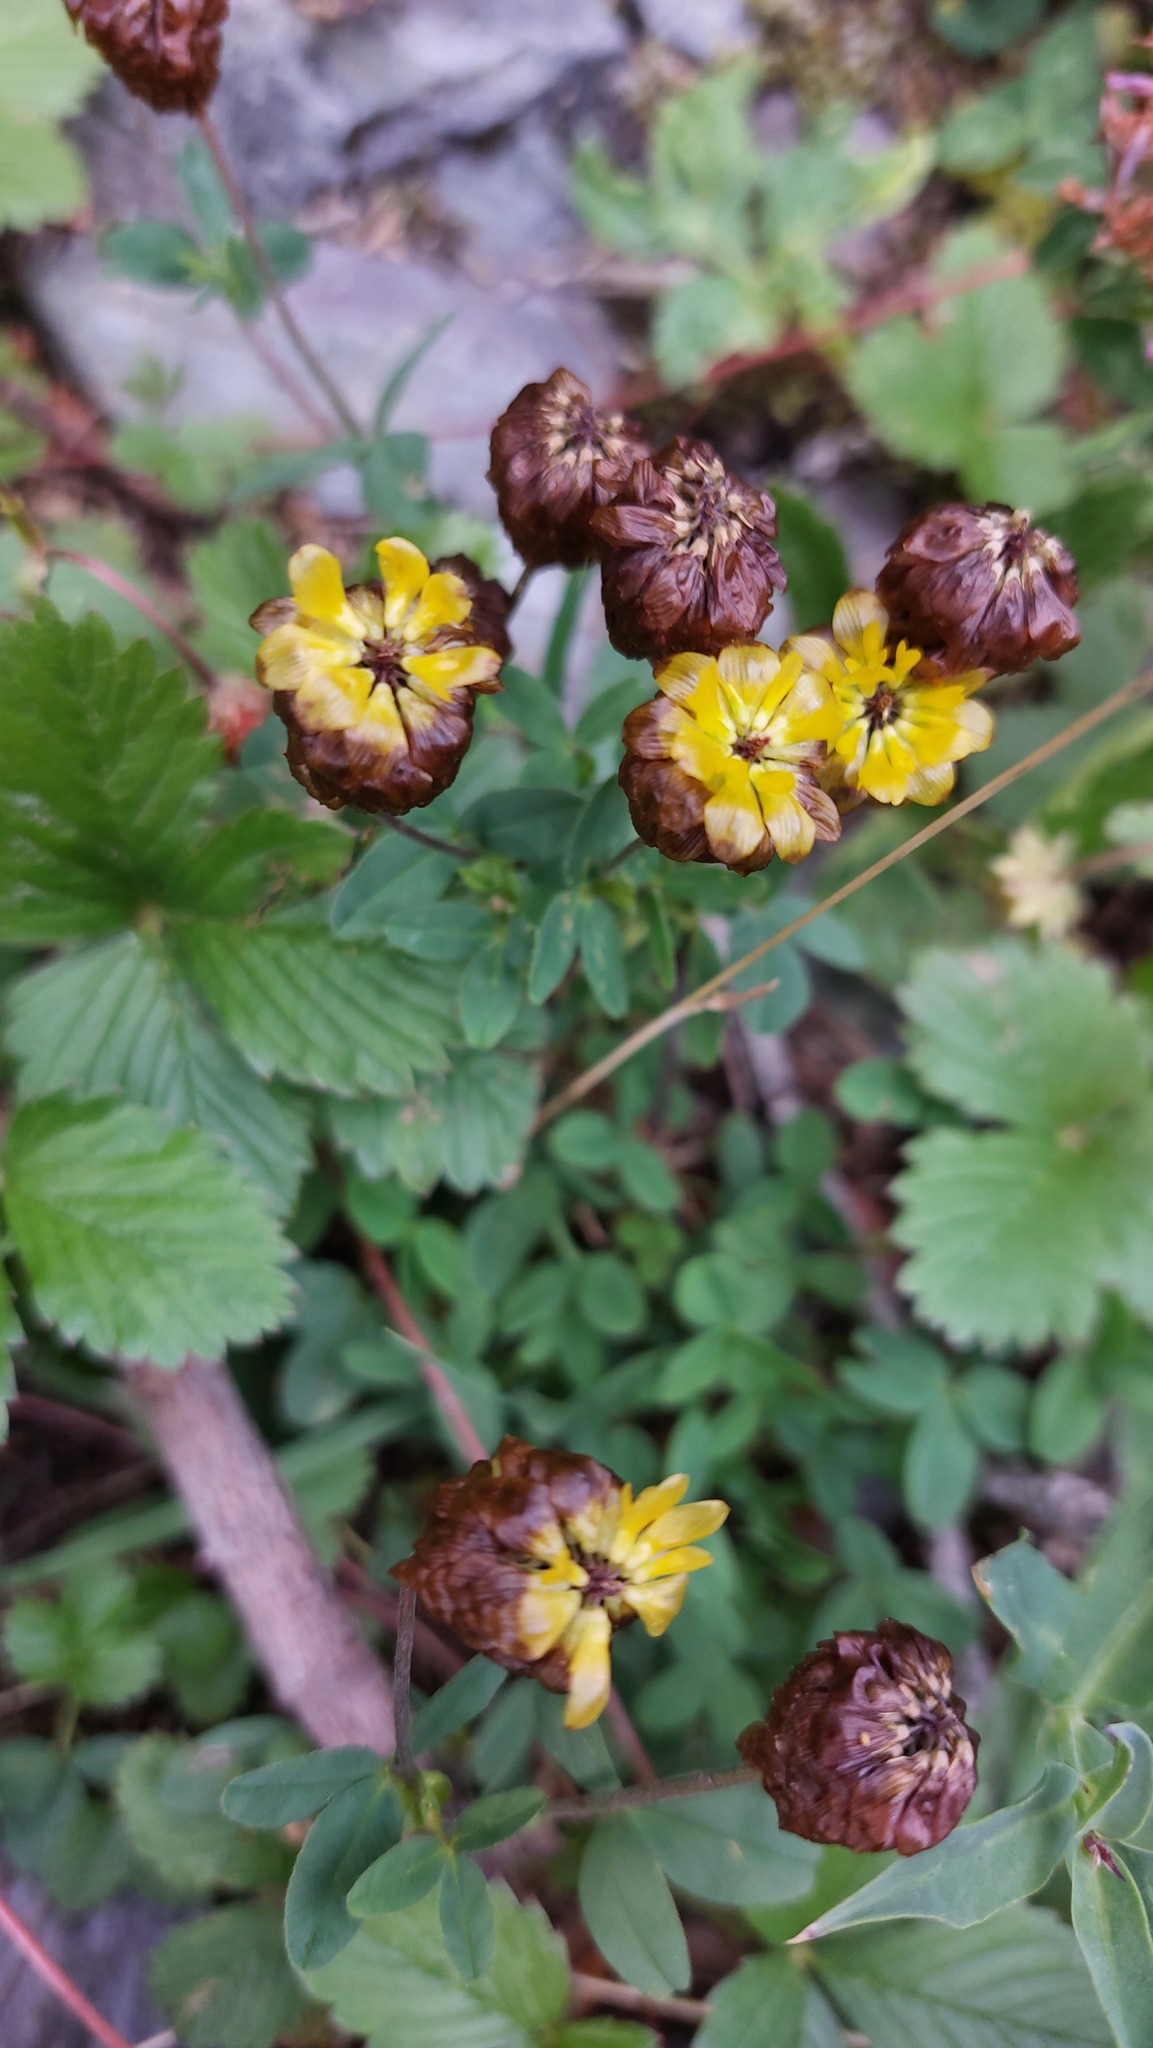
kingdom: Plantae
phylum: Tracheophyta
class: Magnoliopsida
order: Fabales
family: Fabaceae
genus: Trifolium
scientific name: Trifolium badium
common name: Brown clover
